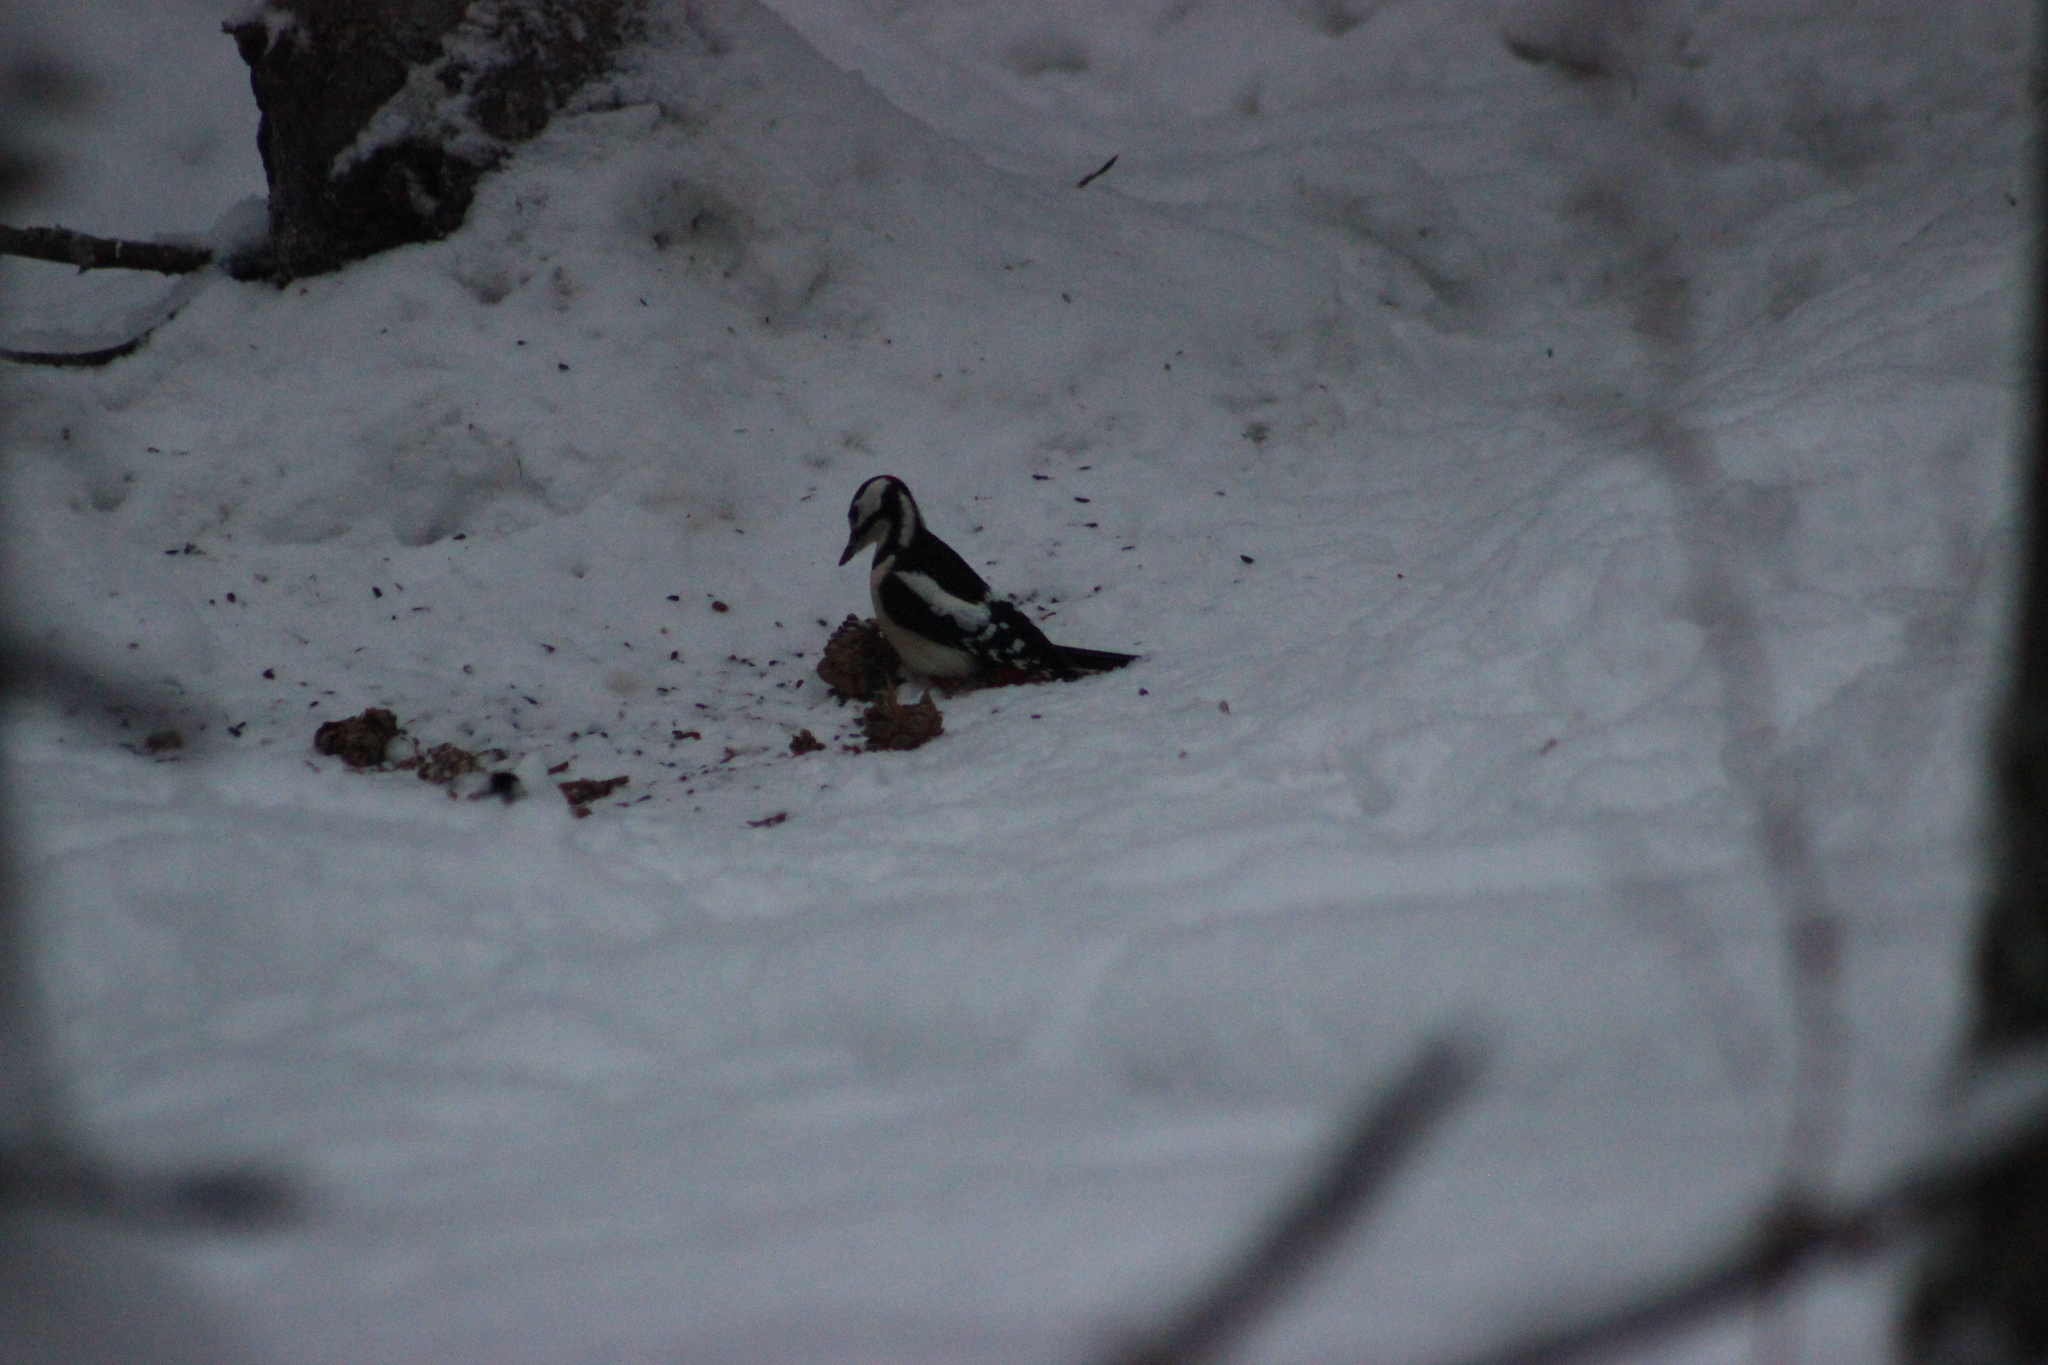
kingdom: Animalia
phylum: Chordata
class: Aves
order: Piciformes
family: Picidae
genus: Dendrocopos
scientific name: Dendrocopos major
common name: Great spotted woodpecker
